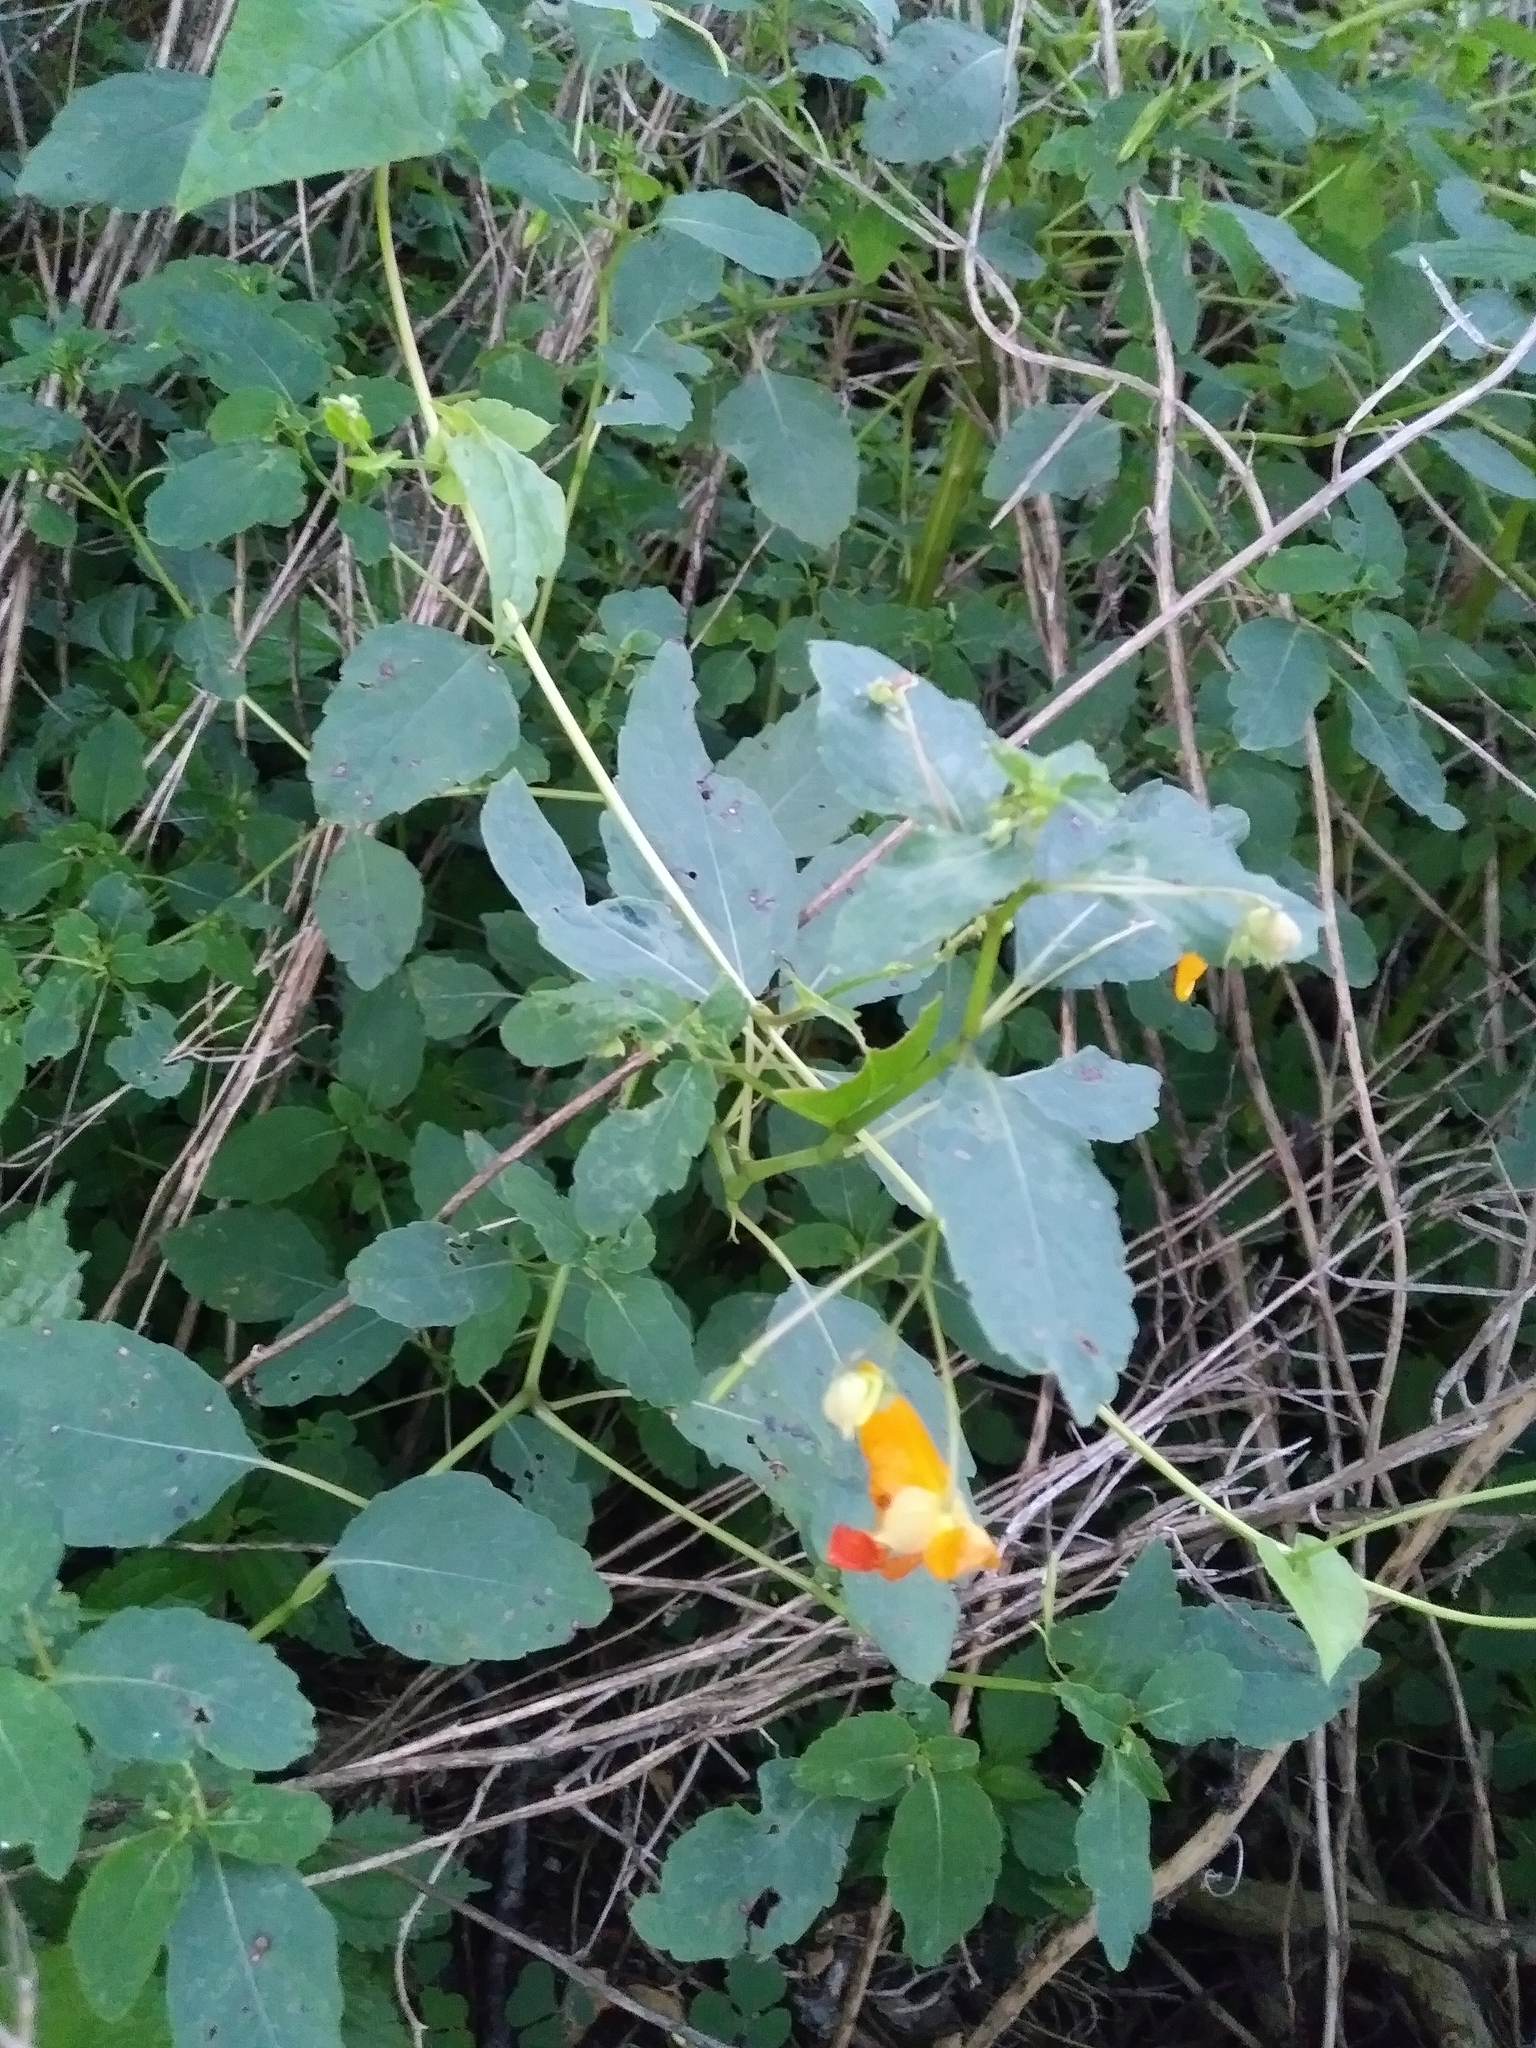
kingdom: Plantae
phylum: Tracheophyta
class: Magnoliopsida
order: Ericales
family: Balsaminaceae
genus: Impatiens
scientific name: Impatiens capensis
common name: Orange balsam
